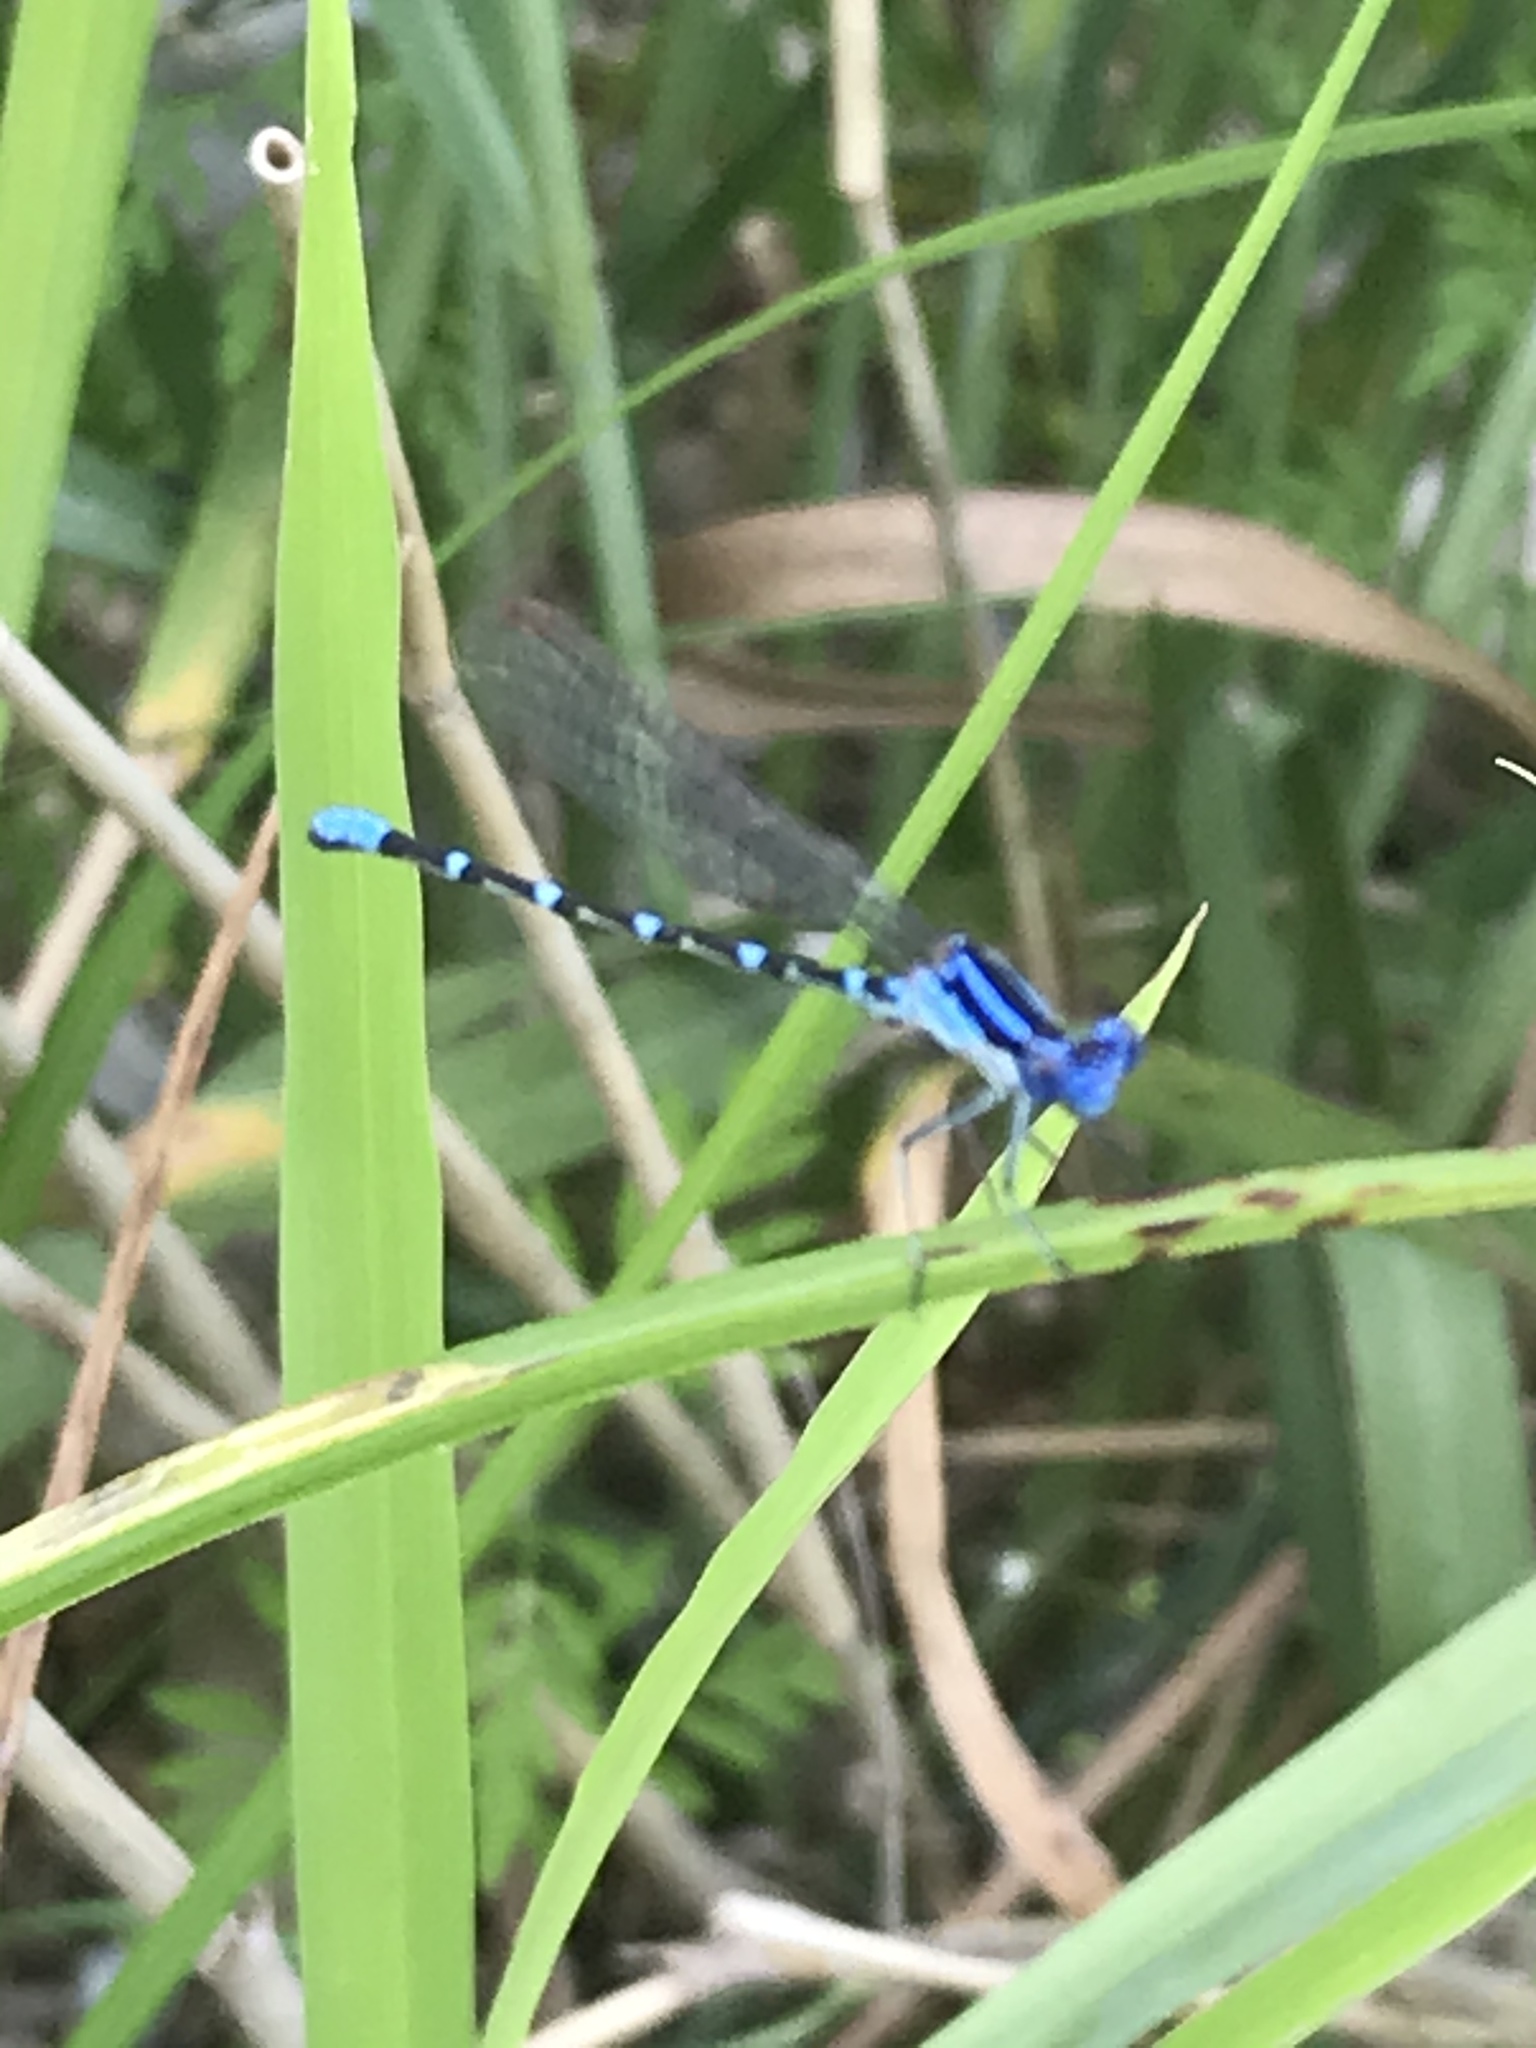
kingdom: Animalia
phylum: Arthropoda
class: Insecta
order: Odonata
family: Coenagrionidae
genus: Argia
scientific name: Argia sedula
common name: Blue-ringed dancer
